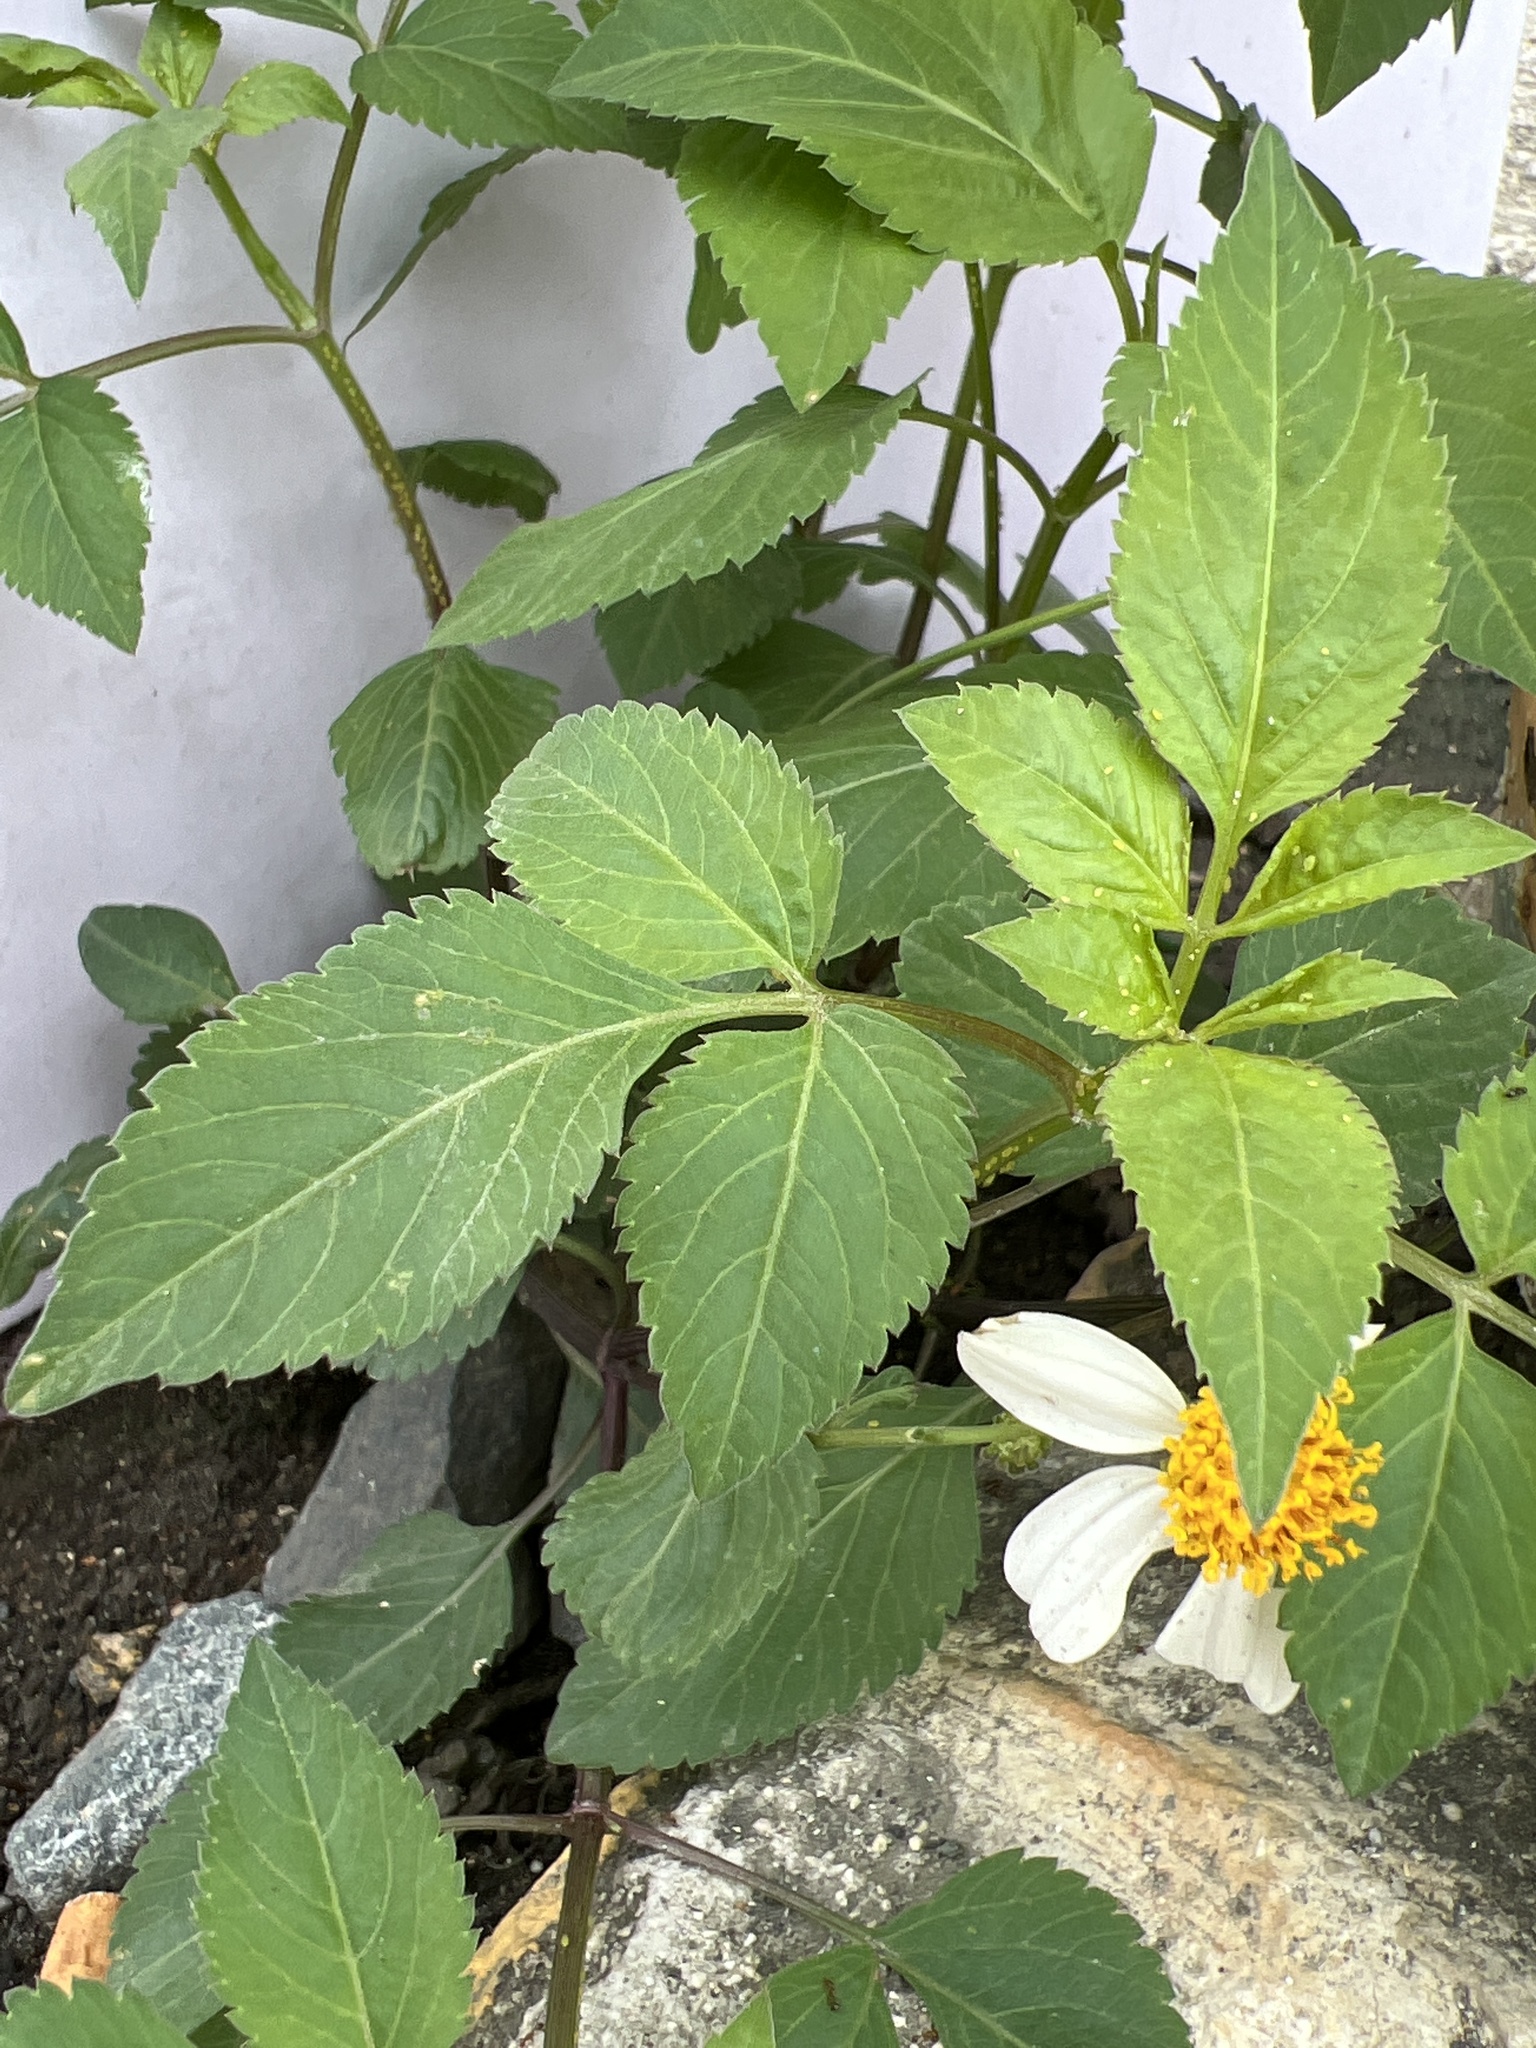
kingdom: Plantae
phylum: Tracheophyta
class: Magnoliopsida
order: Asterales
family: Asteraceae
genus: Bidens
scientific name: Bidens alba
